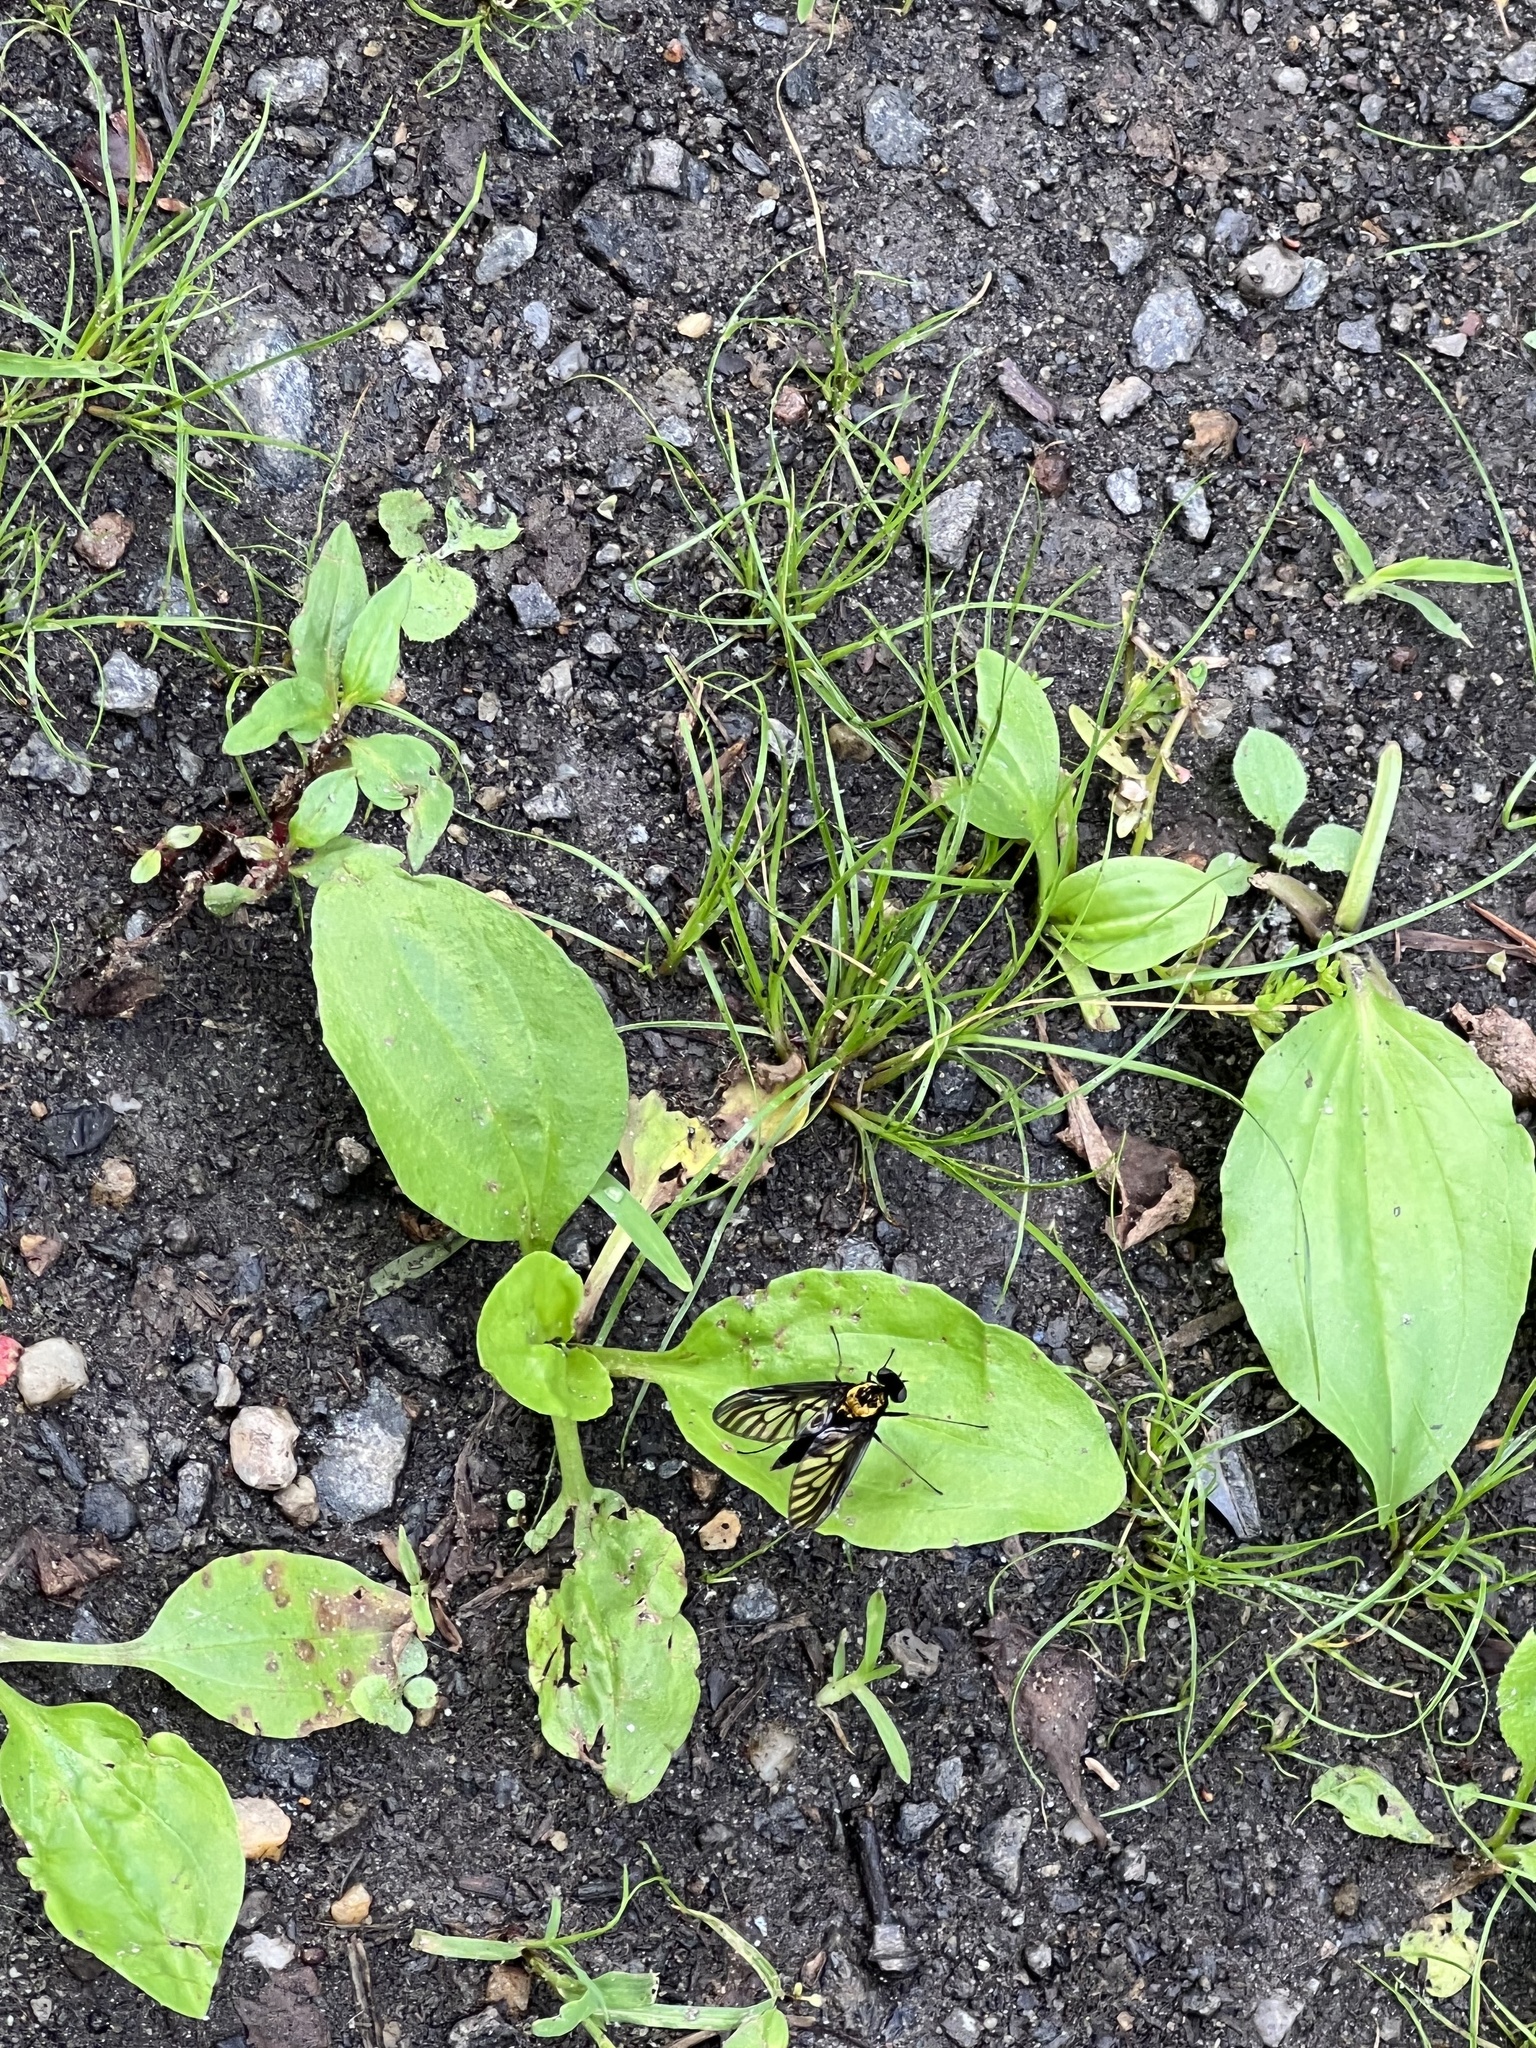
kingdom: Animalia
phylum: Arthropoda
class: Insecta
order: Diptera
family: Rhagionidae
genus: Chrysopilus
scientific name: Chrysopilus thoracicus
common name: Golden-backed snipe fly
